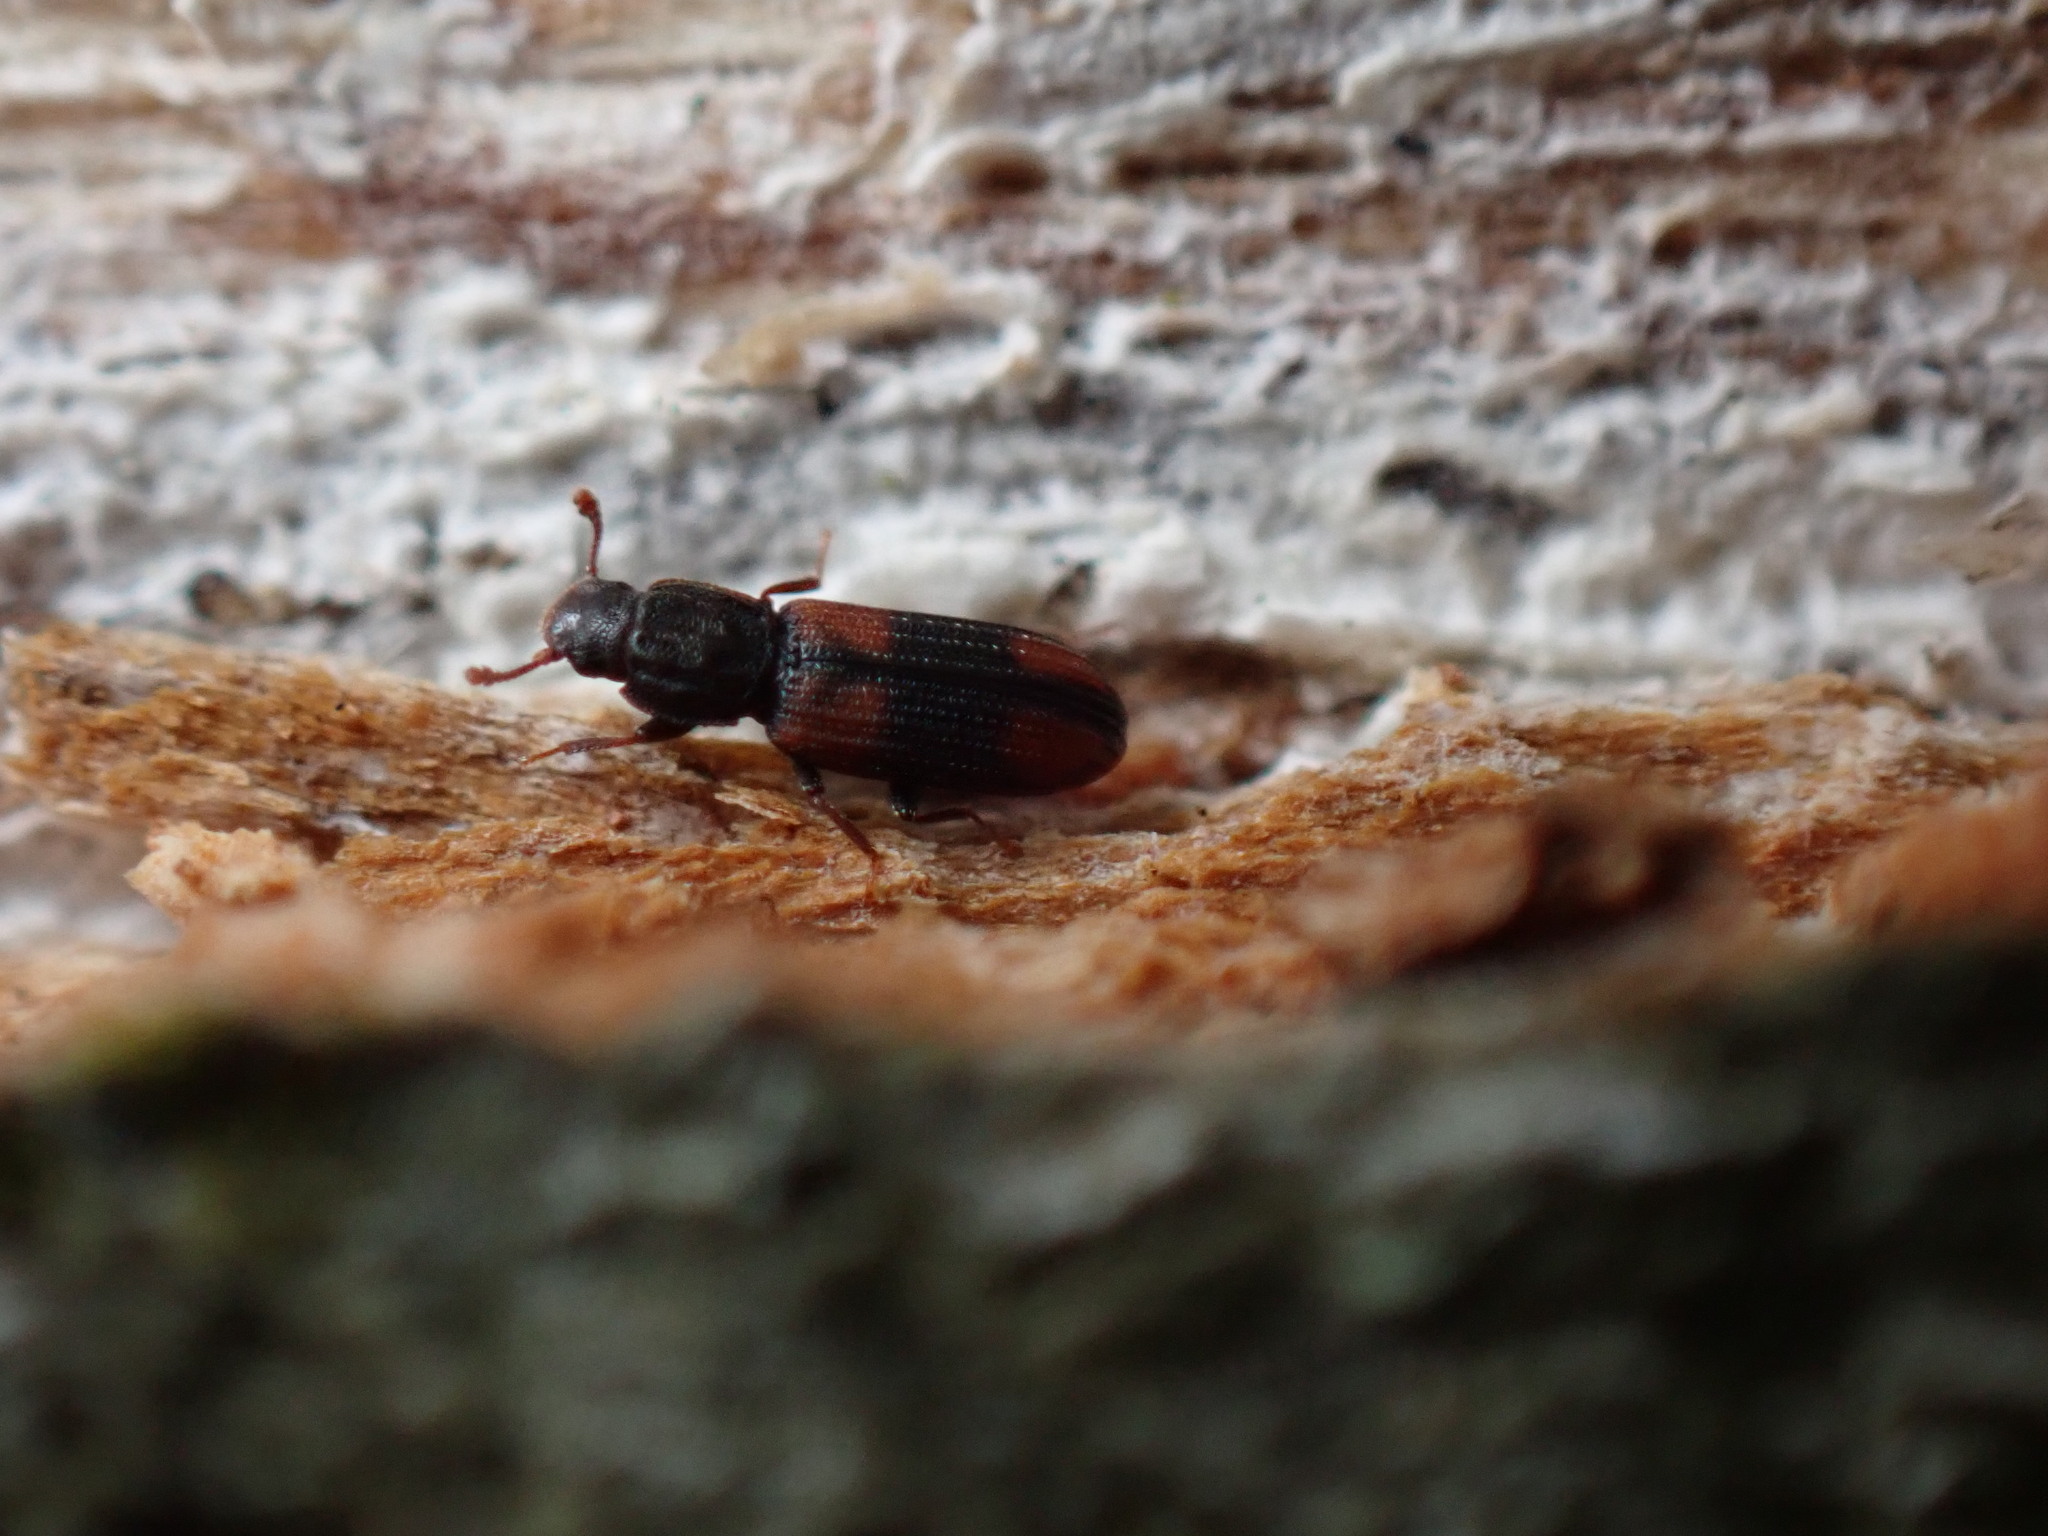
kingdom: Animalia
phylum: Arthropoda
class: Insecta
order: Coleoptera
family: Zopheridae
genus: Bitoma
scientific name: Bitoma crenata
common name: Bark beetle
